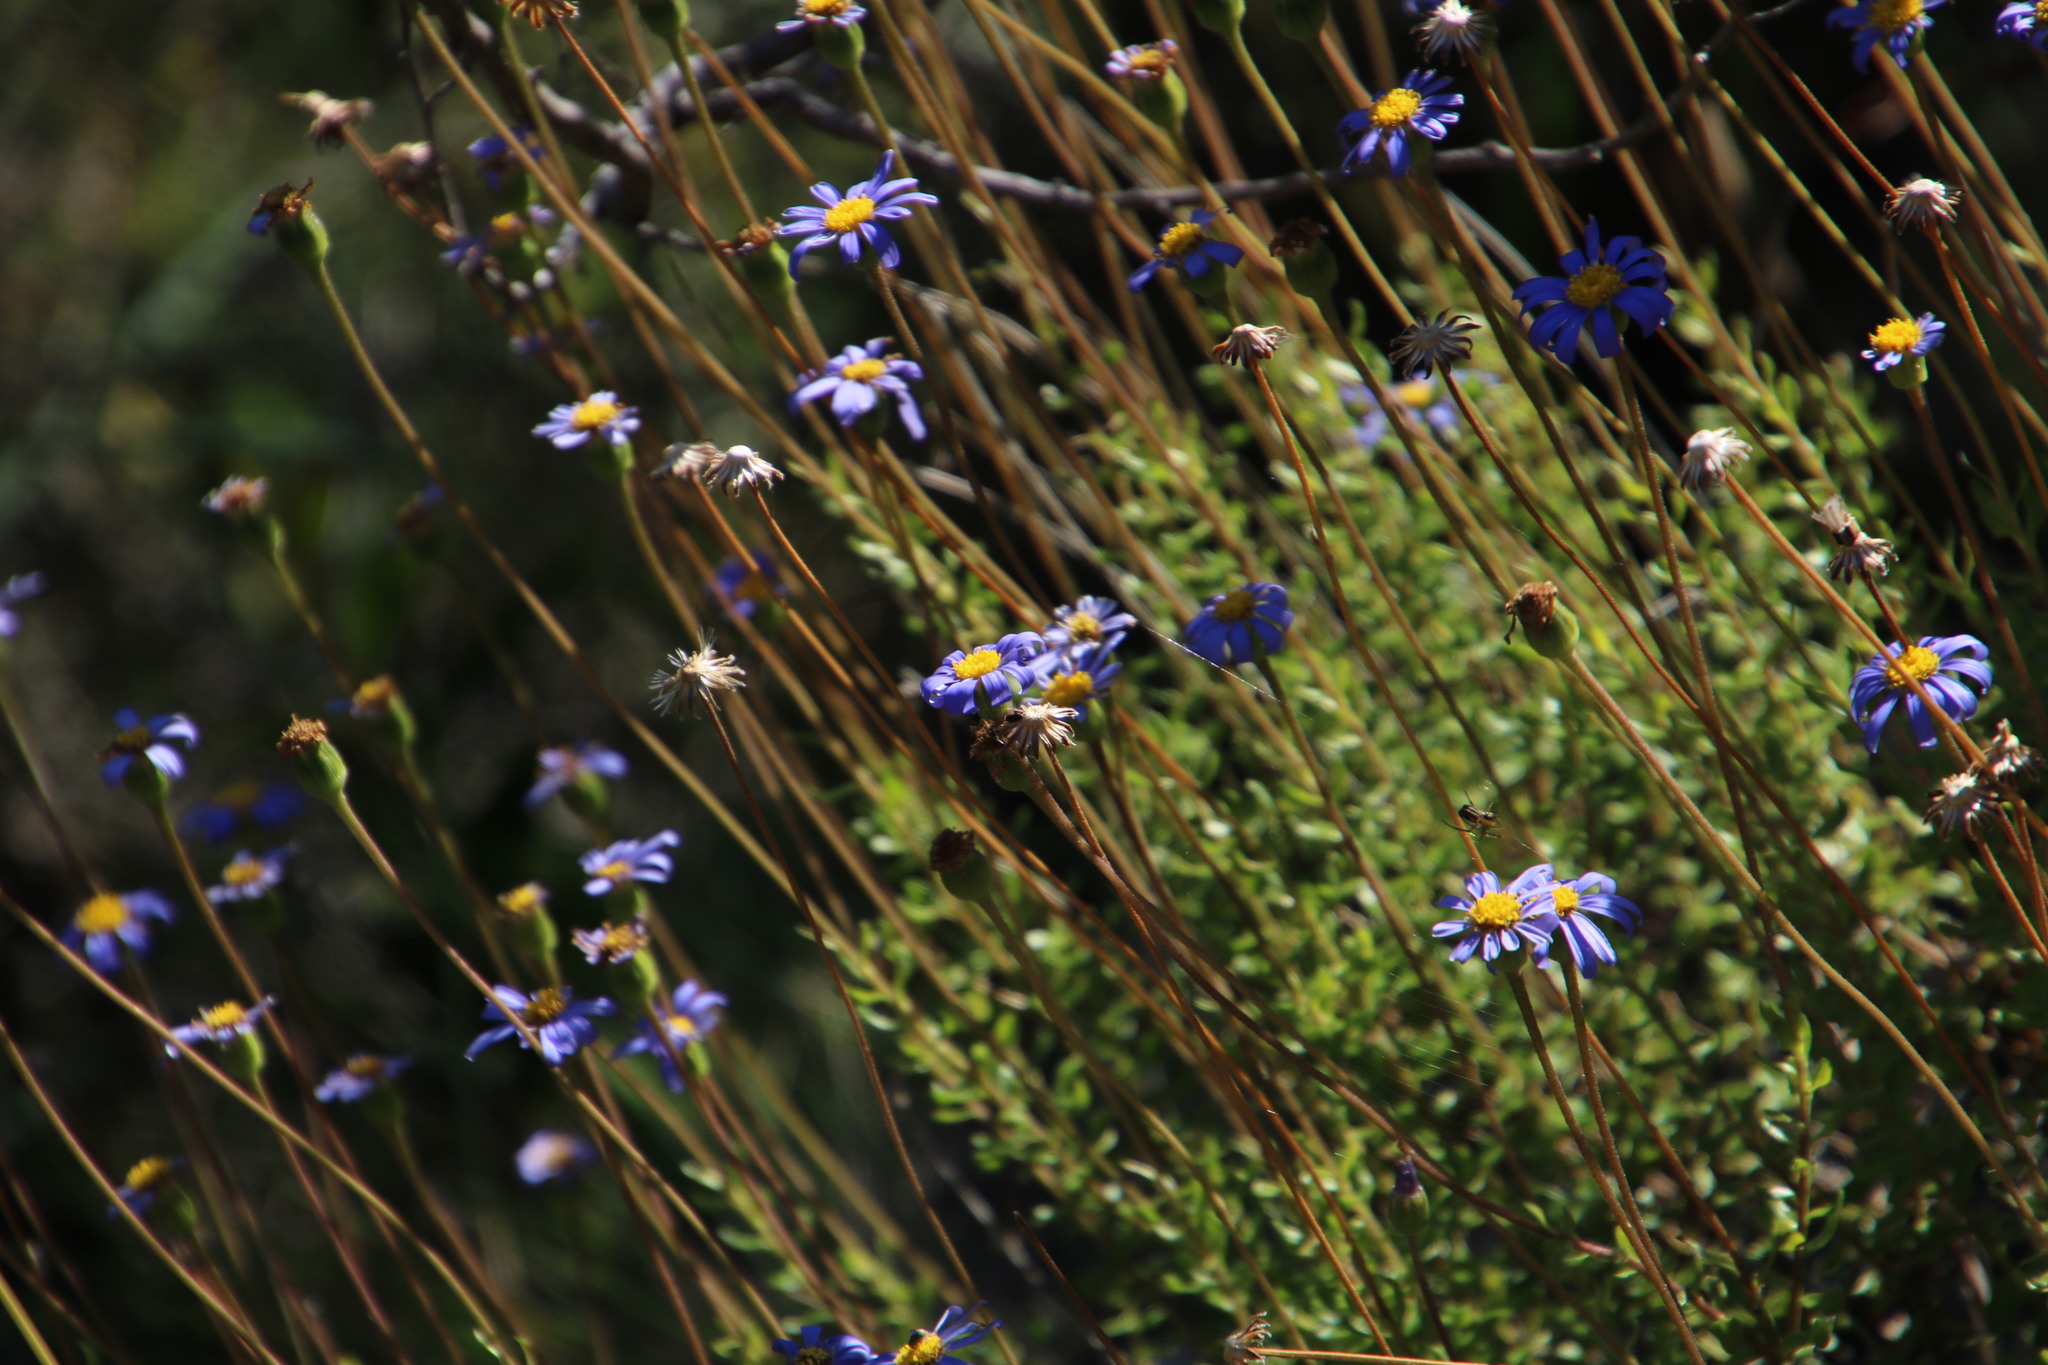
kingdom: Plantae
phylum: Tracheophyta
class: Magnoliopsida
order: Asterales
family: Asteraceae
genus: Felicia
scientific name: Felicia aethiopica
